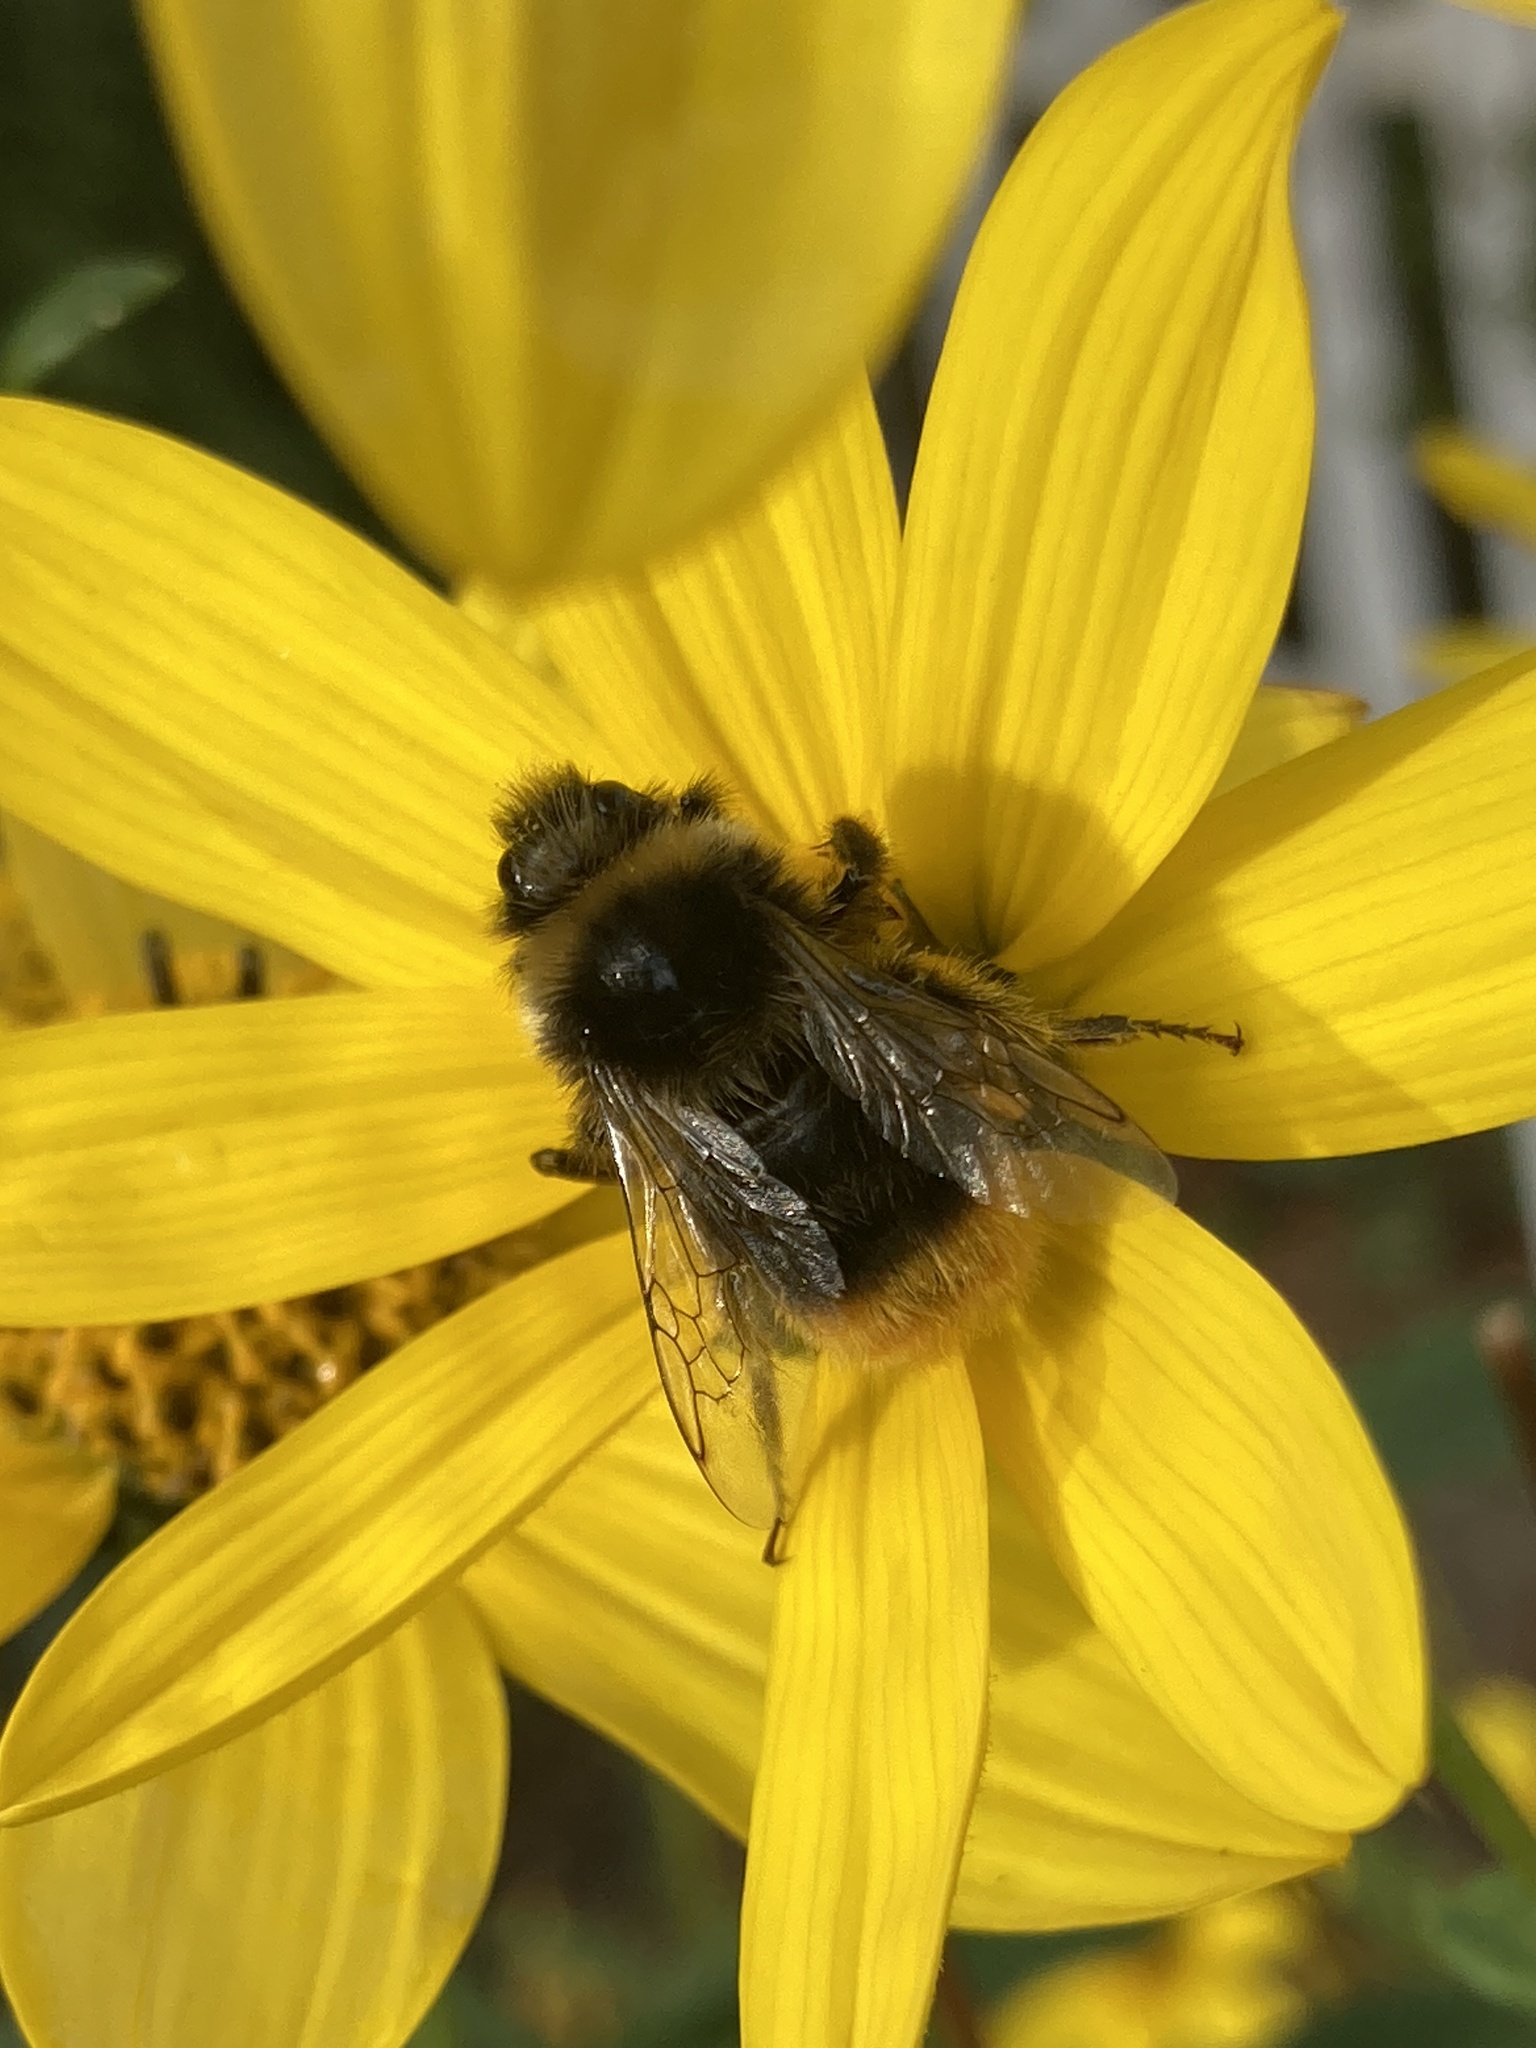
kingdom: Animalia
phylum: Arthropoda
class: Insecta
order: Hymenoptera
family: Apidae
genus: Bombus
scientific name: Bombus lapidarius
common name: Large red-tailed humble-bee
